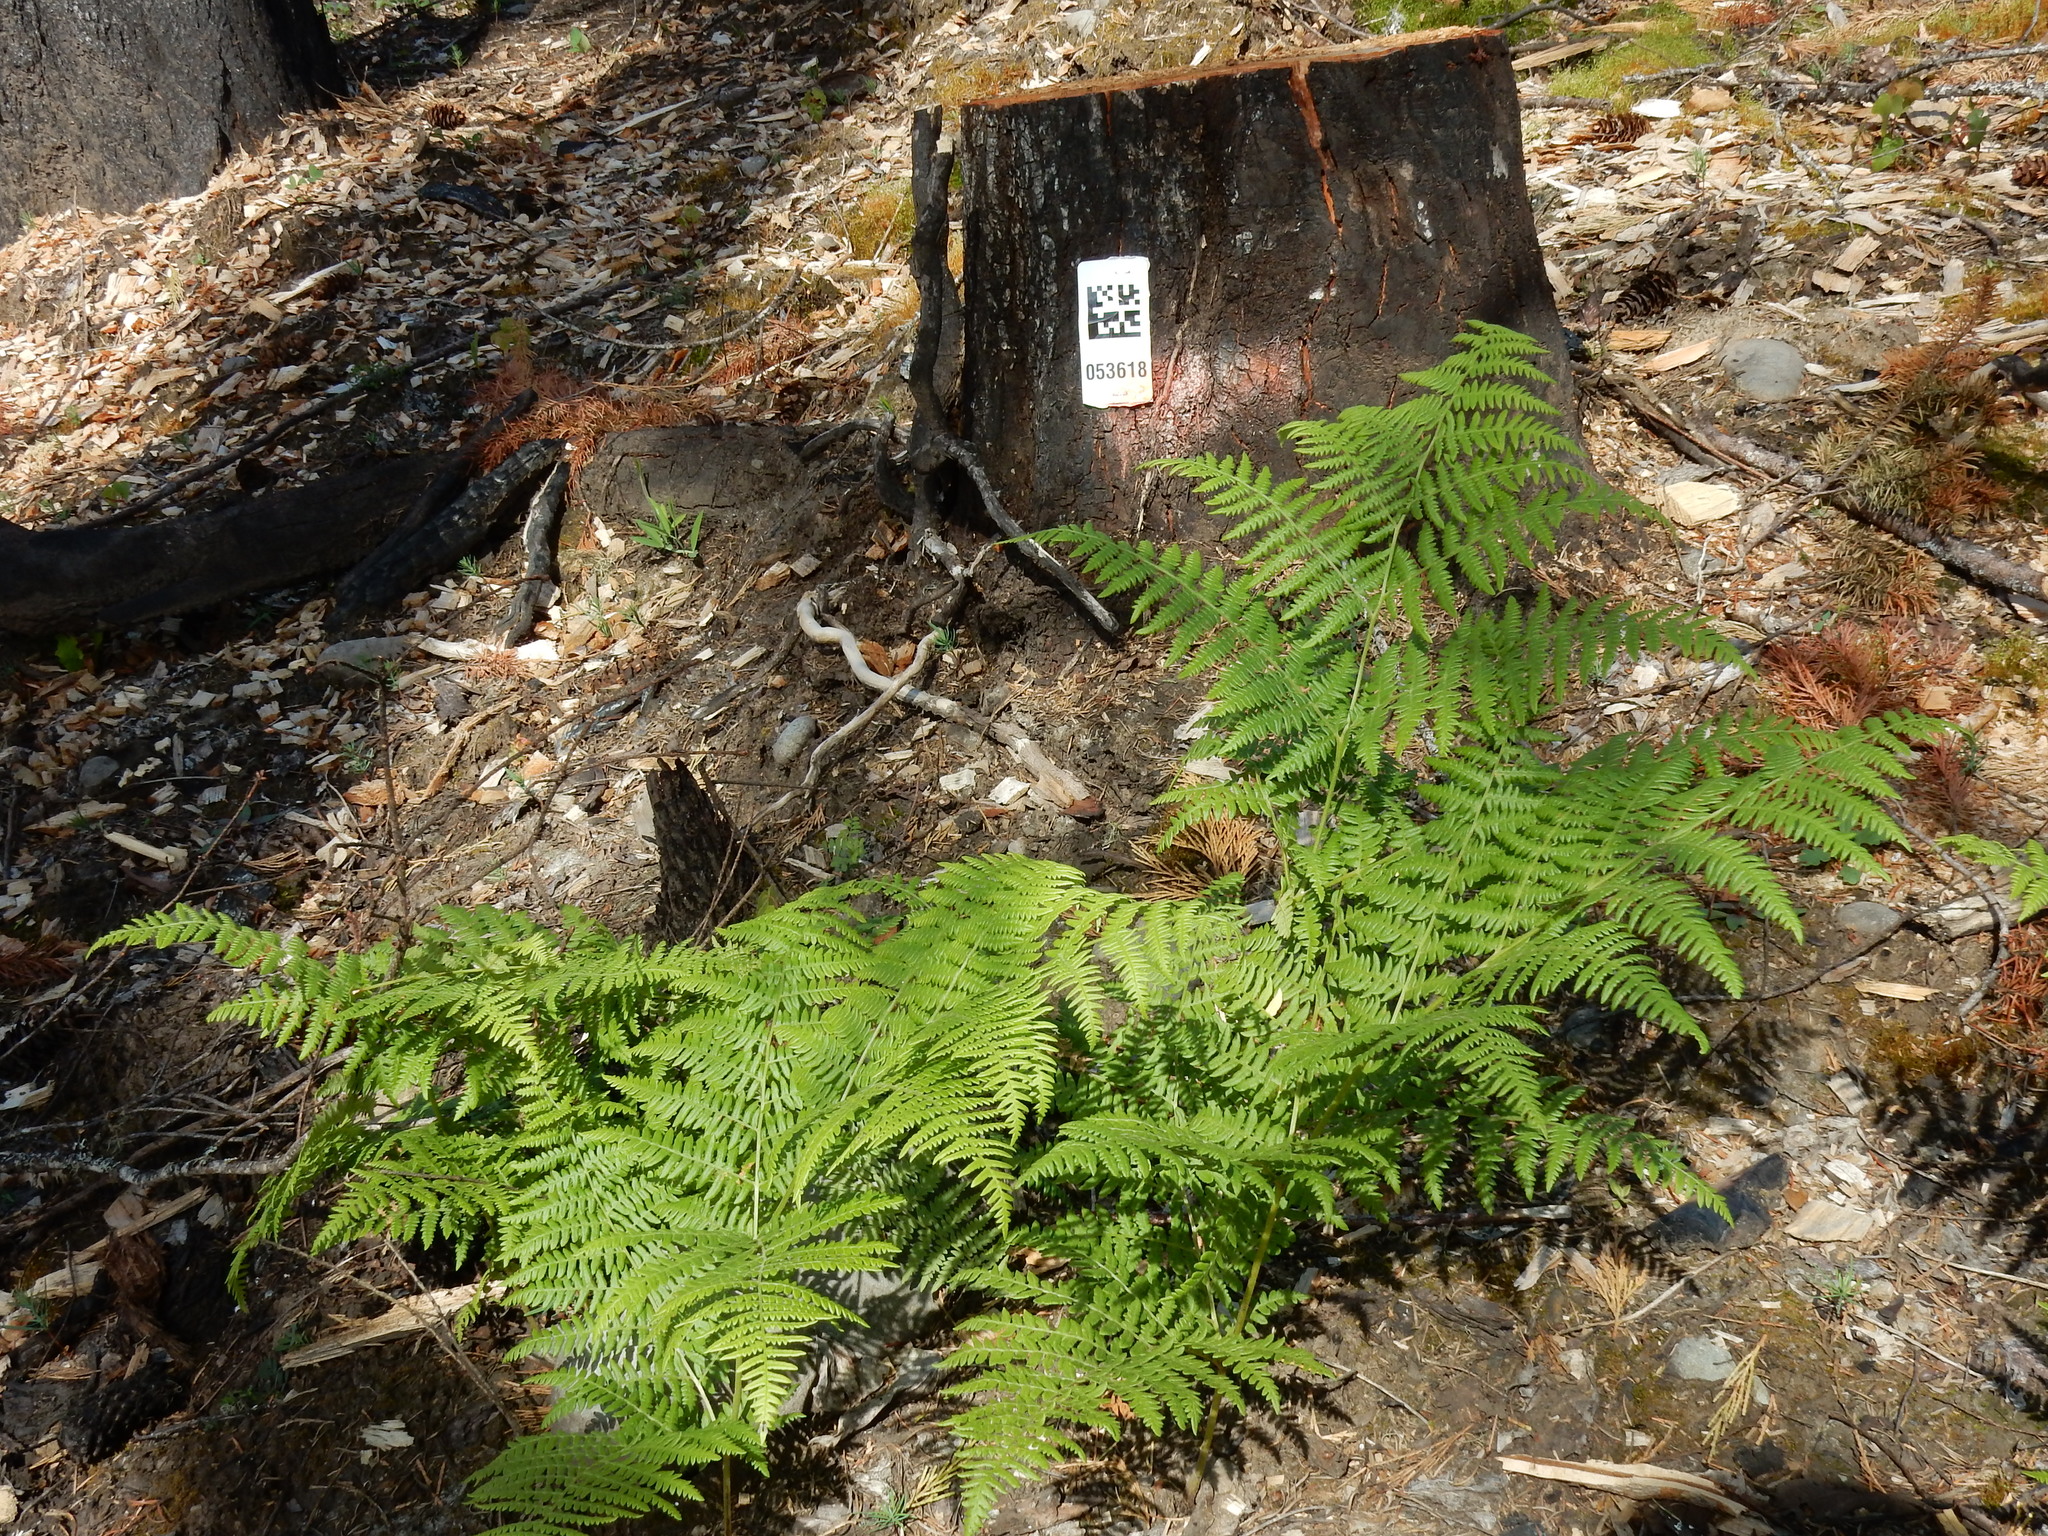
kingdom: Plantae
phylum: Tracheophyta
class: Polypodiopsida
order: Polypodiales
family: Dennstaedtiaceae
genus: Pteridium
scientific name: Pteridium aquilinum
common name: Bracken
